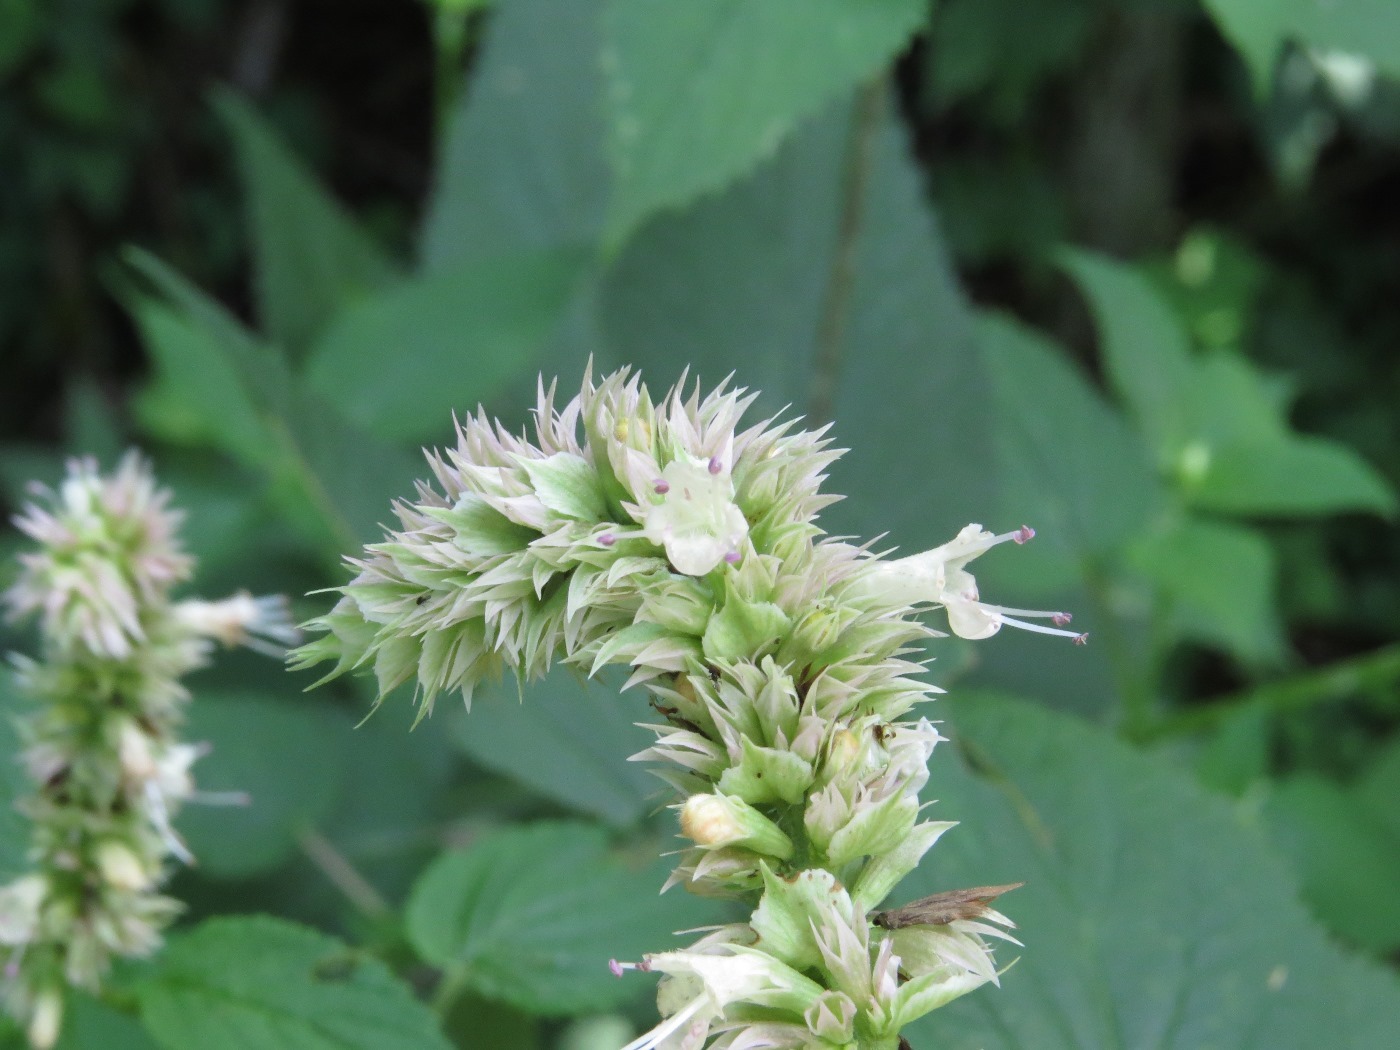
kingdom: Plantae
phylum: Tracheophyta
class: Magnoliopsida
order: Lamiales
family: Lamiaceae
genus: Agastache
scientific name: Agastache scrophulariifolia
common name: Figwort giant hyssop
